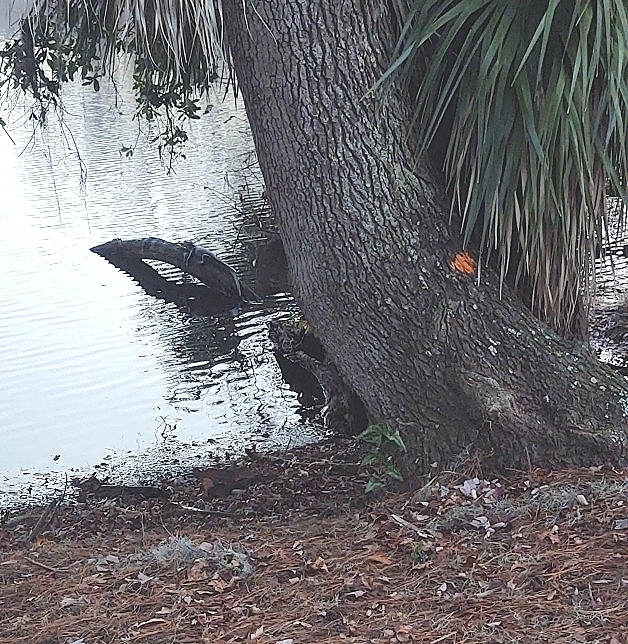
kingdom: Animalia
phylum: Chordata
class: Crocodylia
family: Alligatoridae
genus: Alligator
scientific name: Alligator mississippiensis
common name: American alligator
